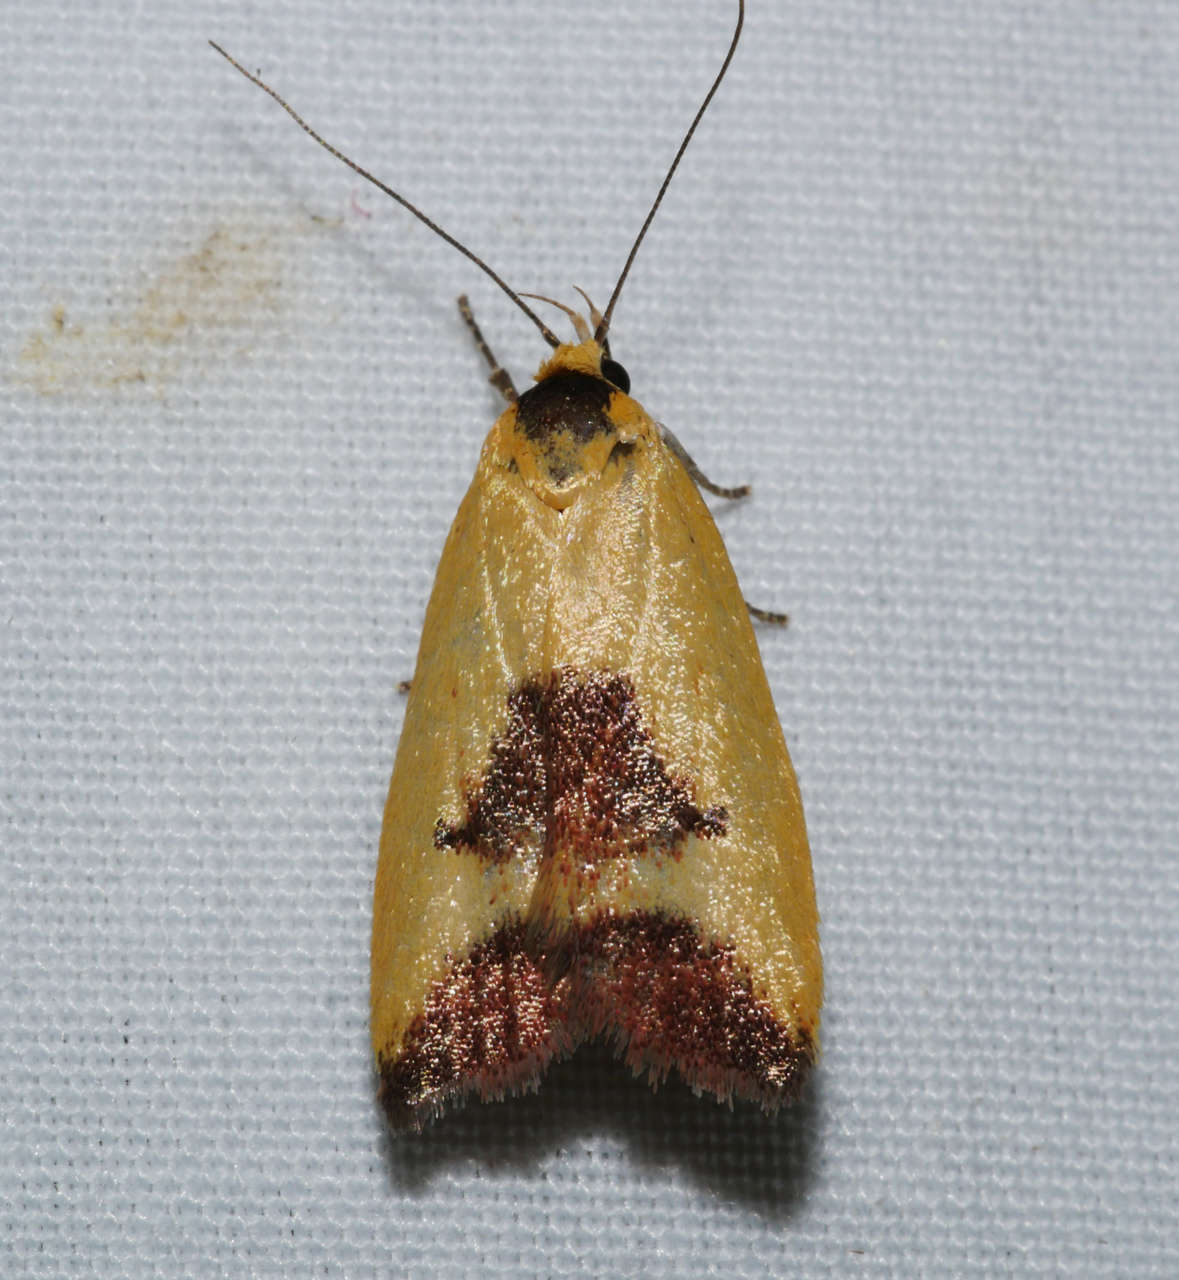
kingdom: Animalia
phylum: Arthropoda
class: Insecta
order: Lepidoptera
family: Oecophoridae
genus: Ageletha
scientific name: Ageletha hemiteles
